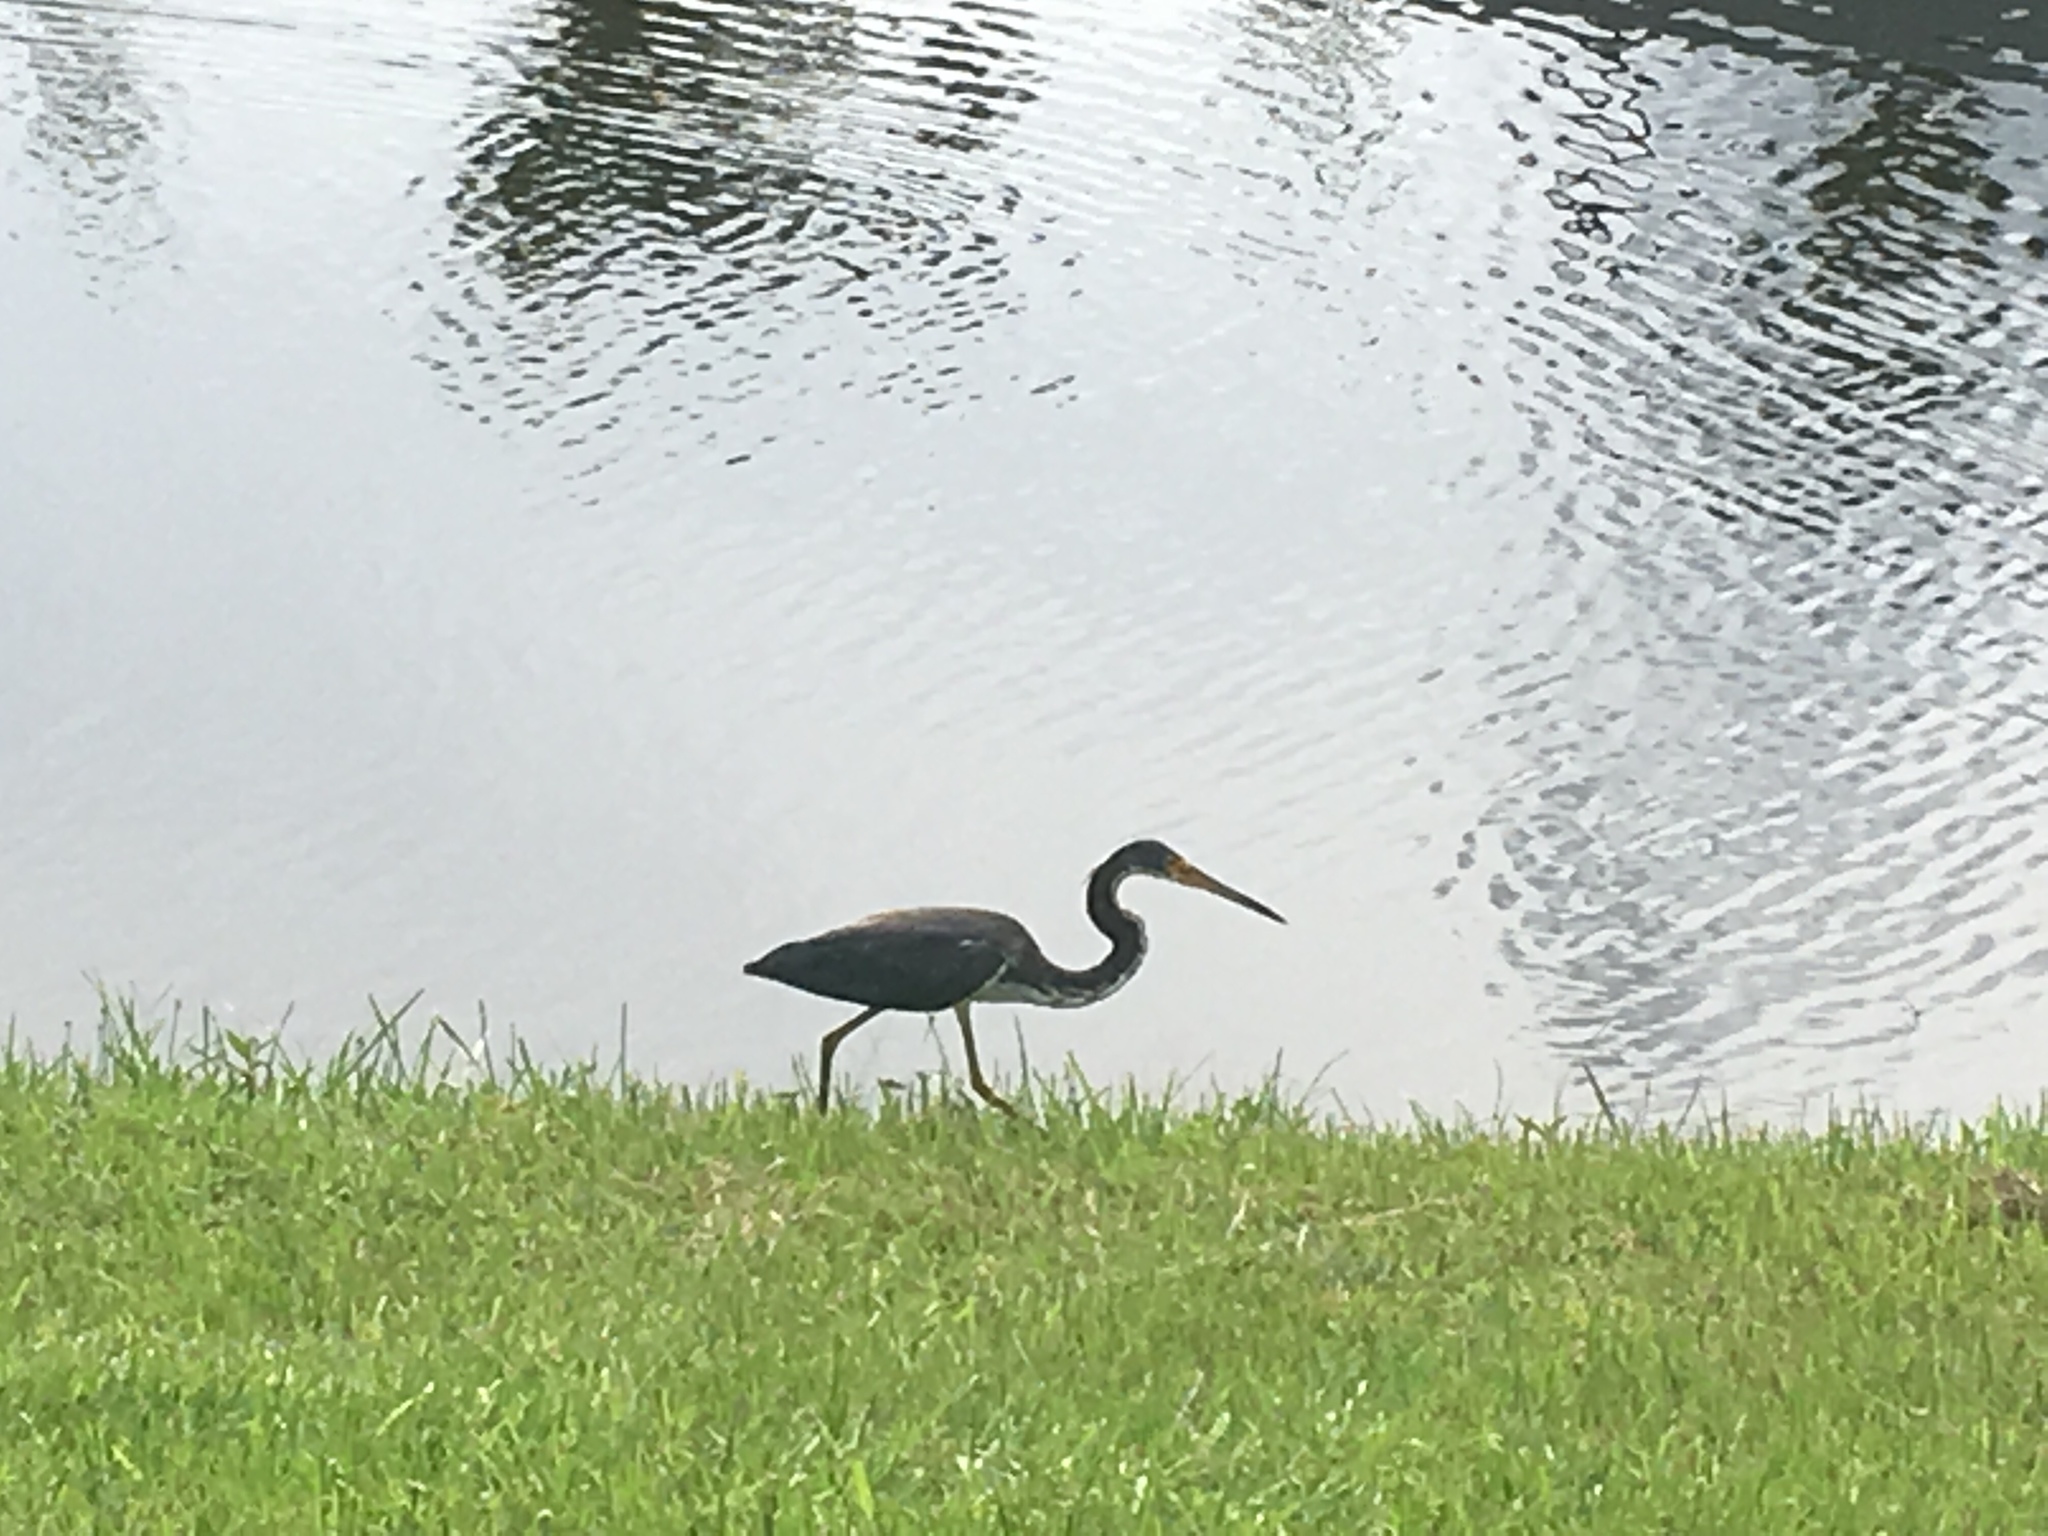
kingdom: Animalia
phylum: Chordata
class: Aves
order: Pelecaniformes
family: Ardeidae
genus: Egretta
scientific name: Egretta tricolor
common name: Tricolored heron
